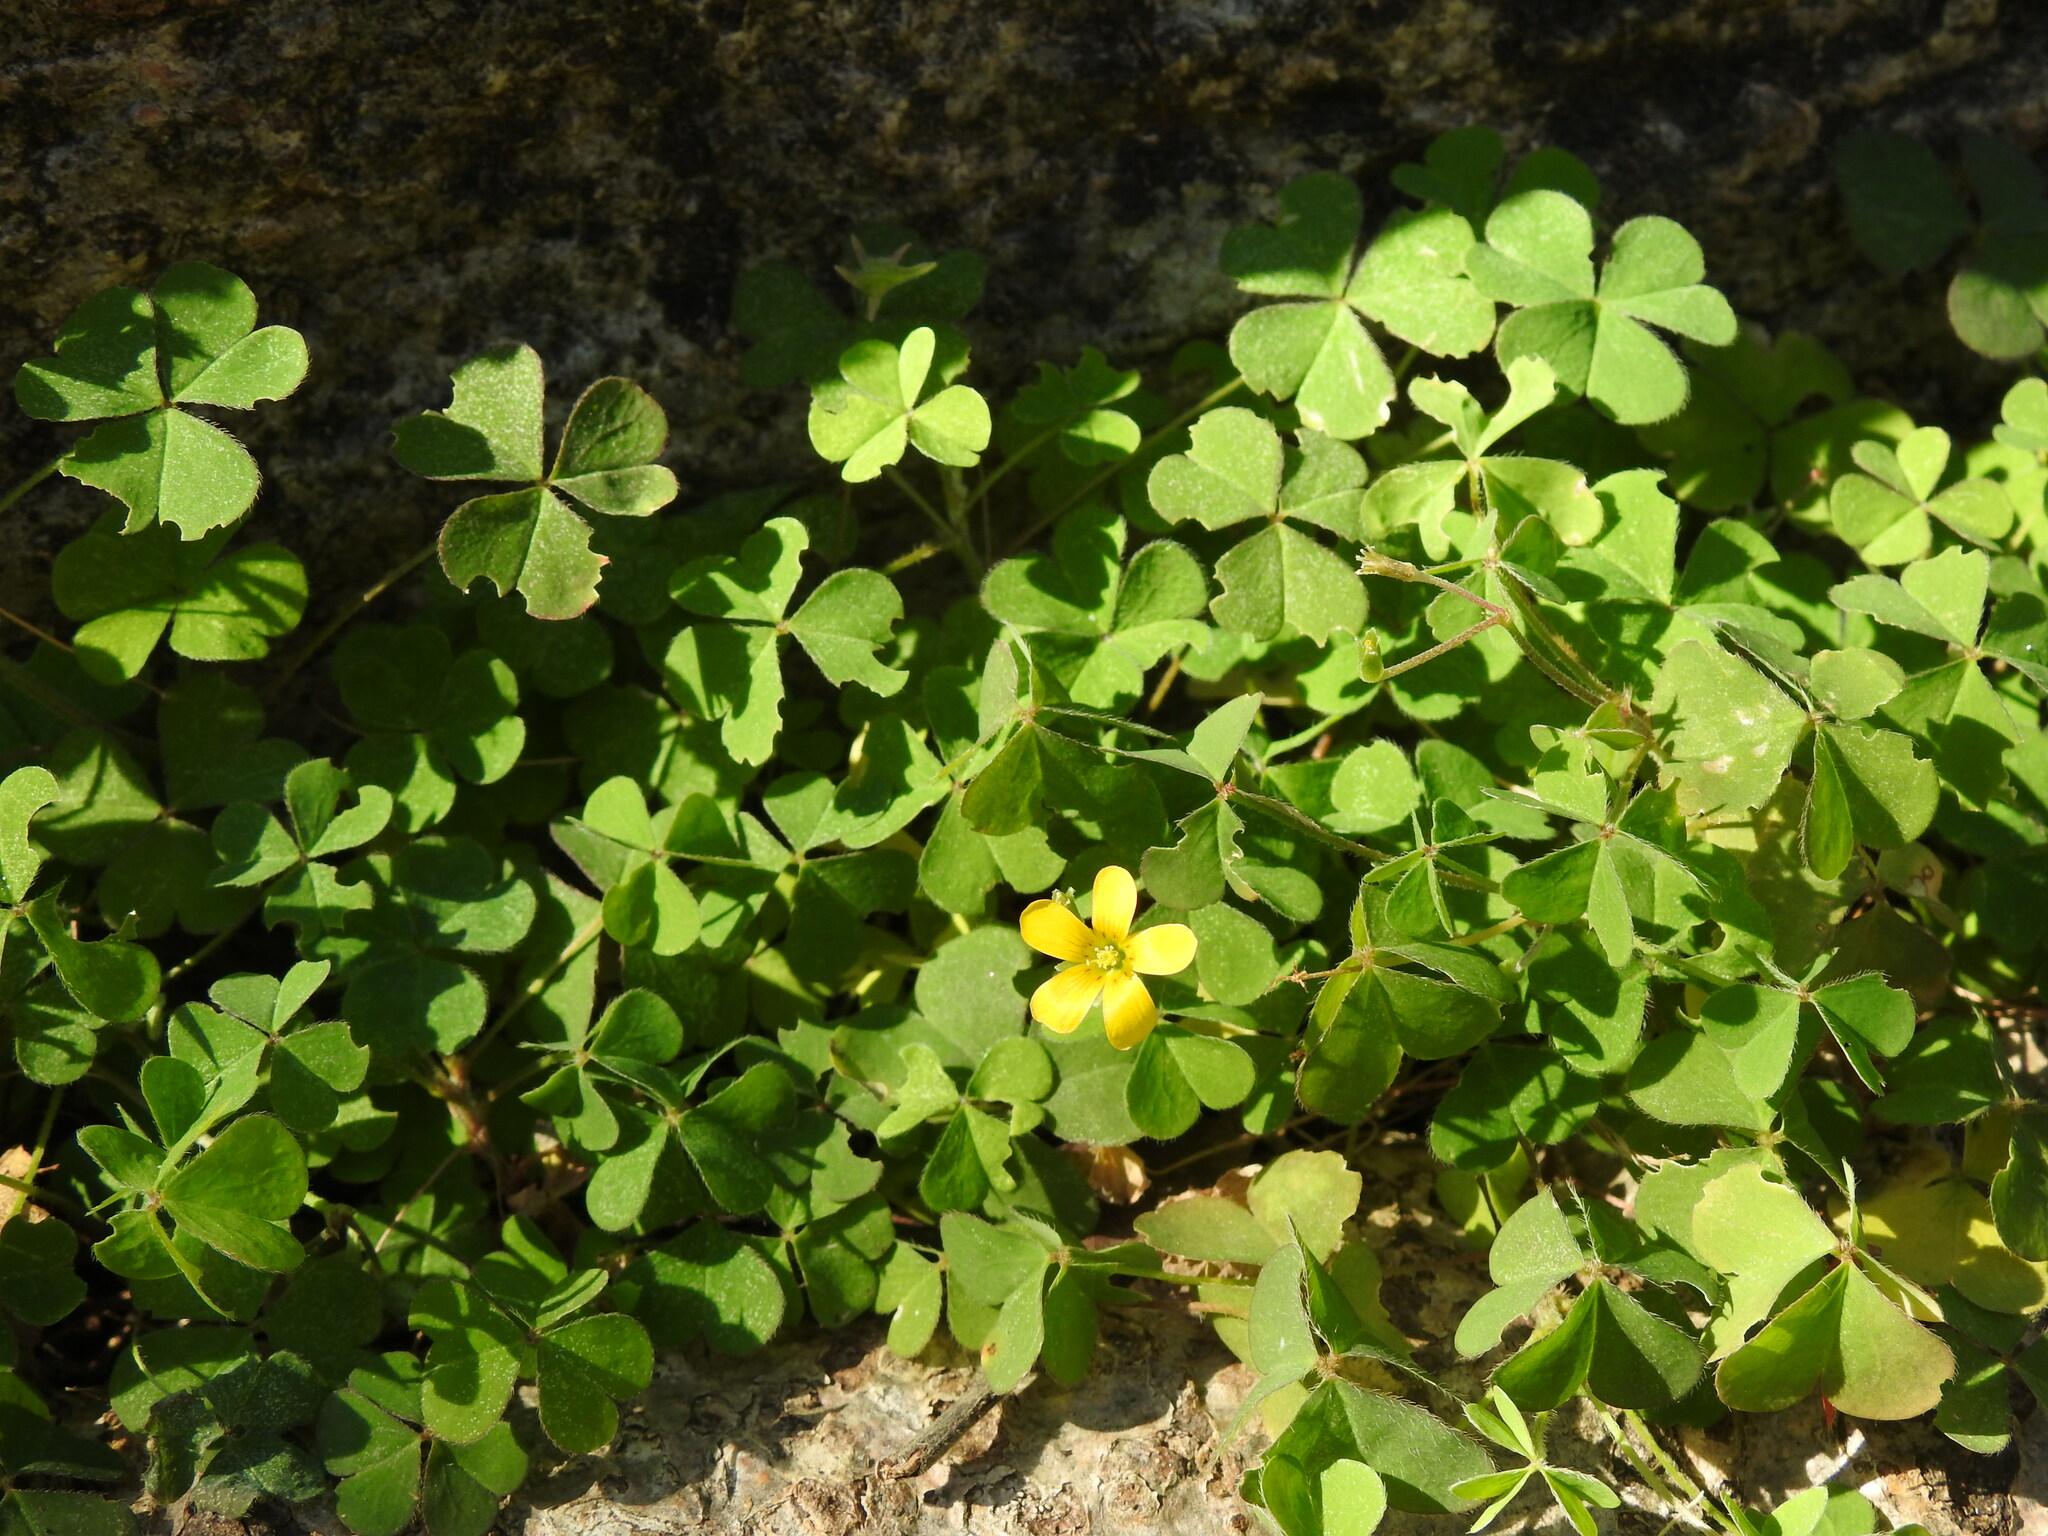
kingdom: Plantae
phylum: Tracheophyta
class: Magnoliopsida
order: Oxalidales
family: Oxalidaceae
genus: Oxalis
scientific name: Oxalis corniculata
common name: Procumbent yellow-sorrel
